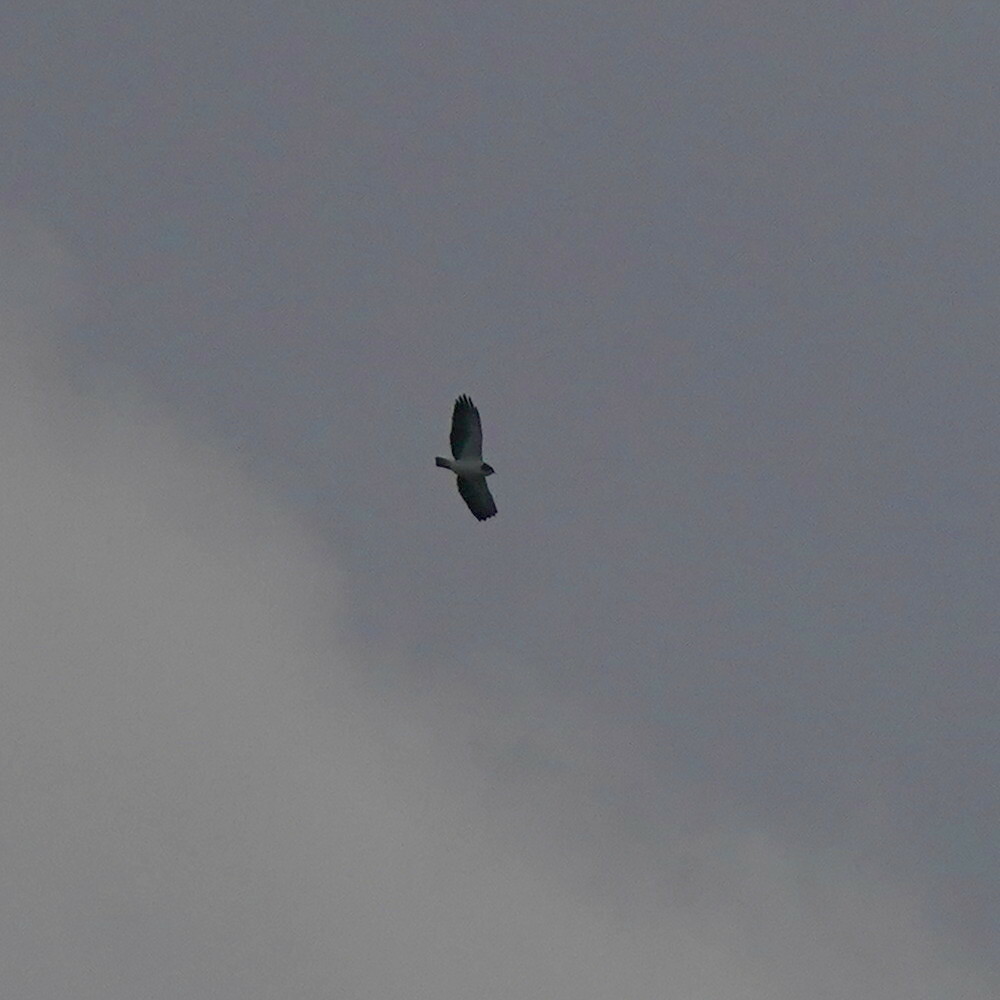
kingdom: Animalia
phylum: Chordata
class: Aves
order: Accipitriformes
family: Accipitridae
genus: Buteo
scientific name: Buteo brachyurus
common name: Short-tailed hawk
